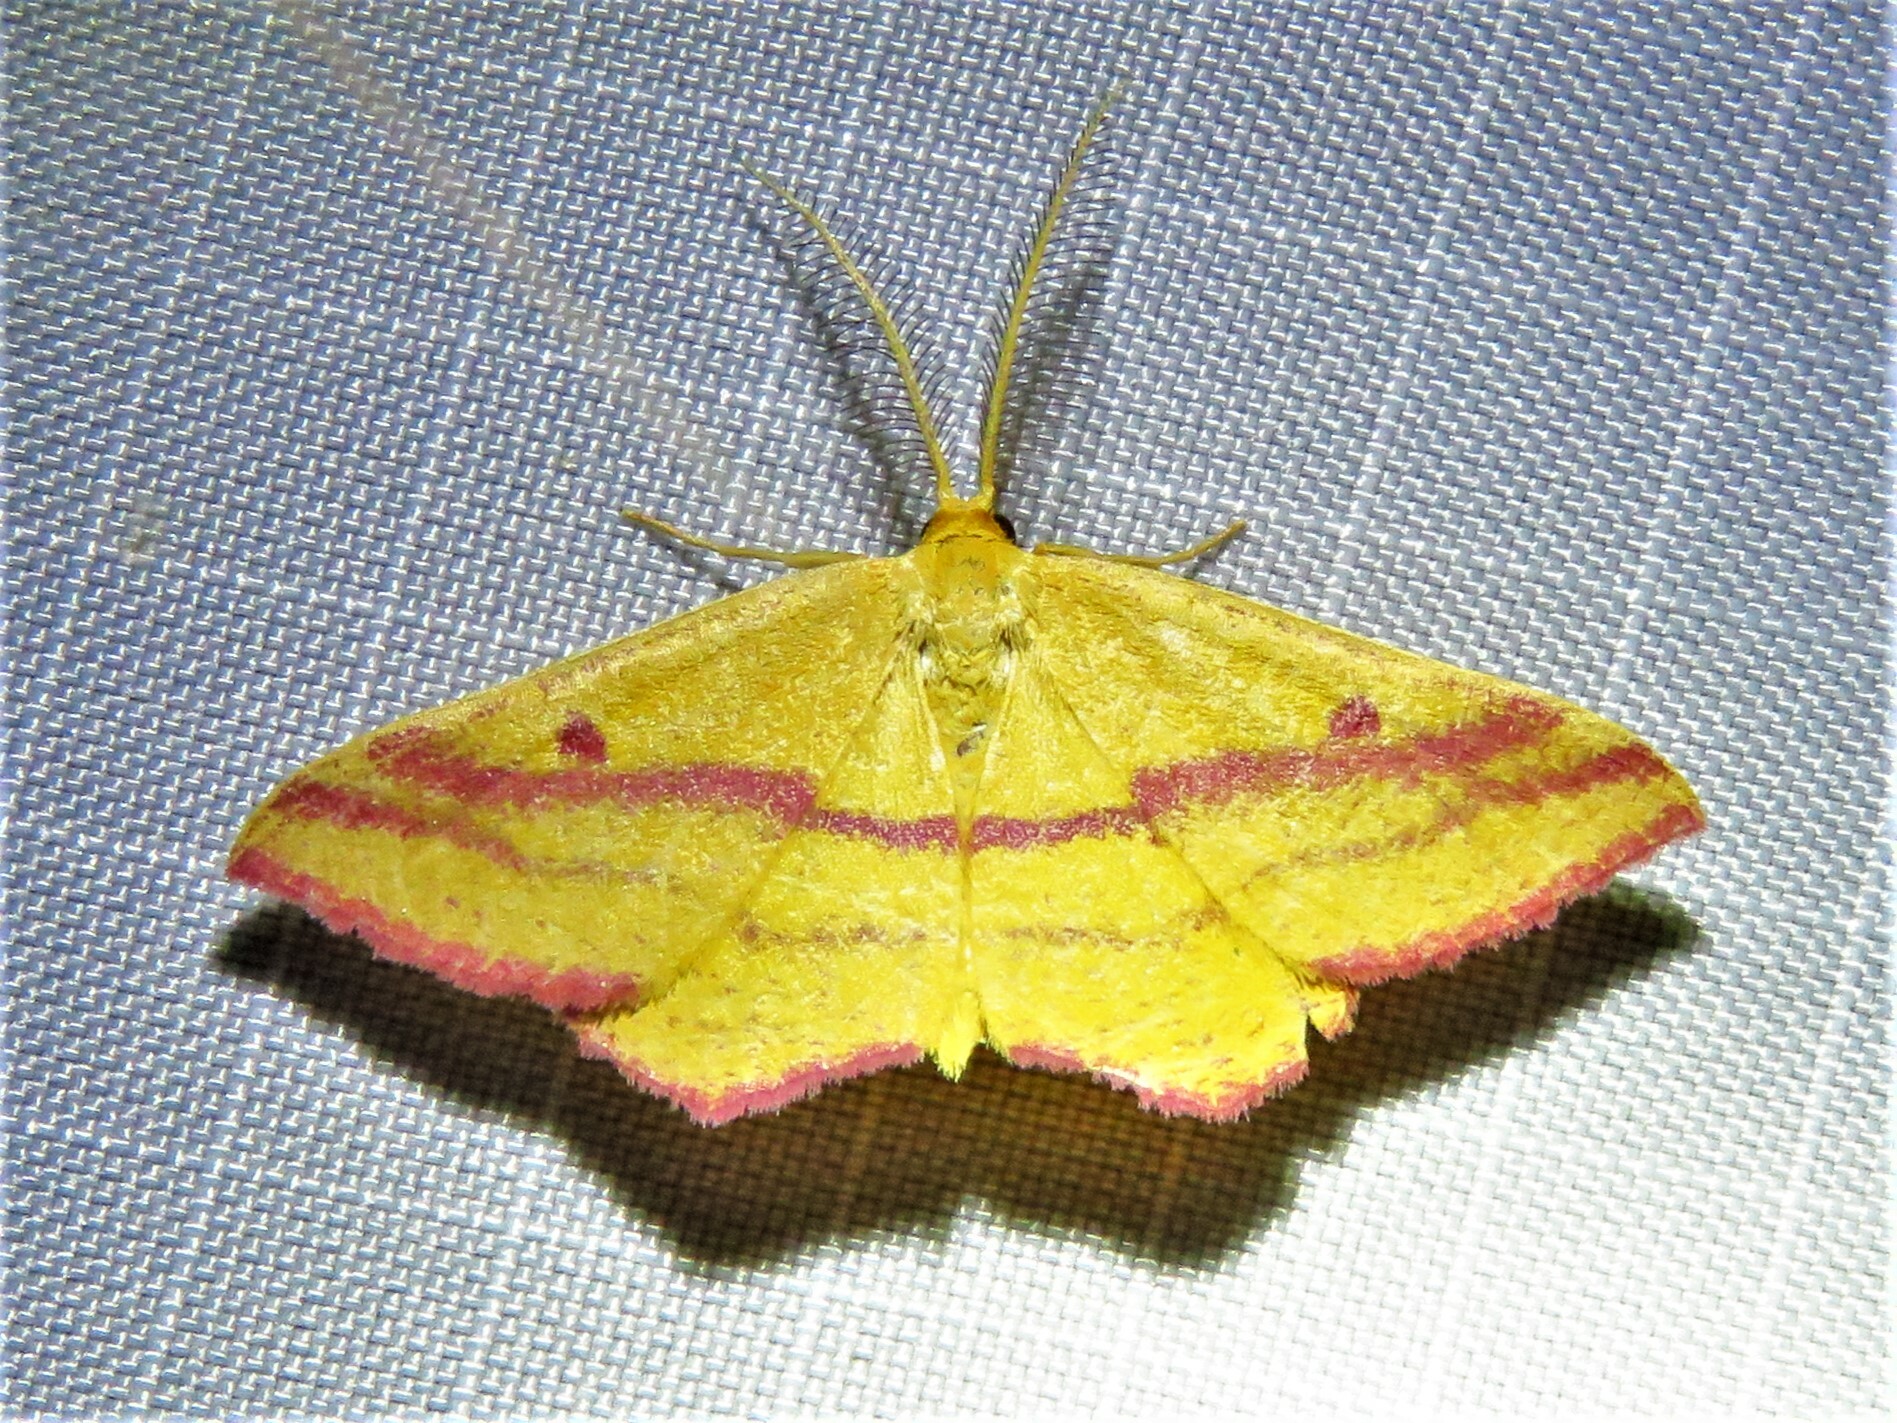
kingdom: Animalia
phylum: Arthropoda
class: Insecta
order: Lepidoptera
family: Geometridae
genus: Haematopis
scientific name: Haematopis grataria
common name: Chickweed geometer
